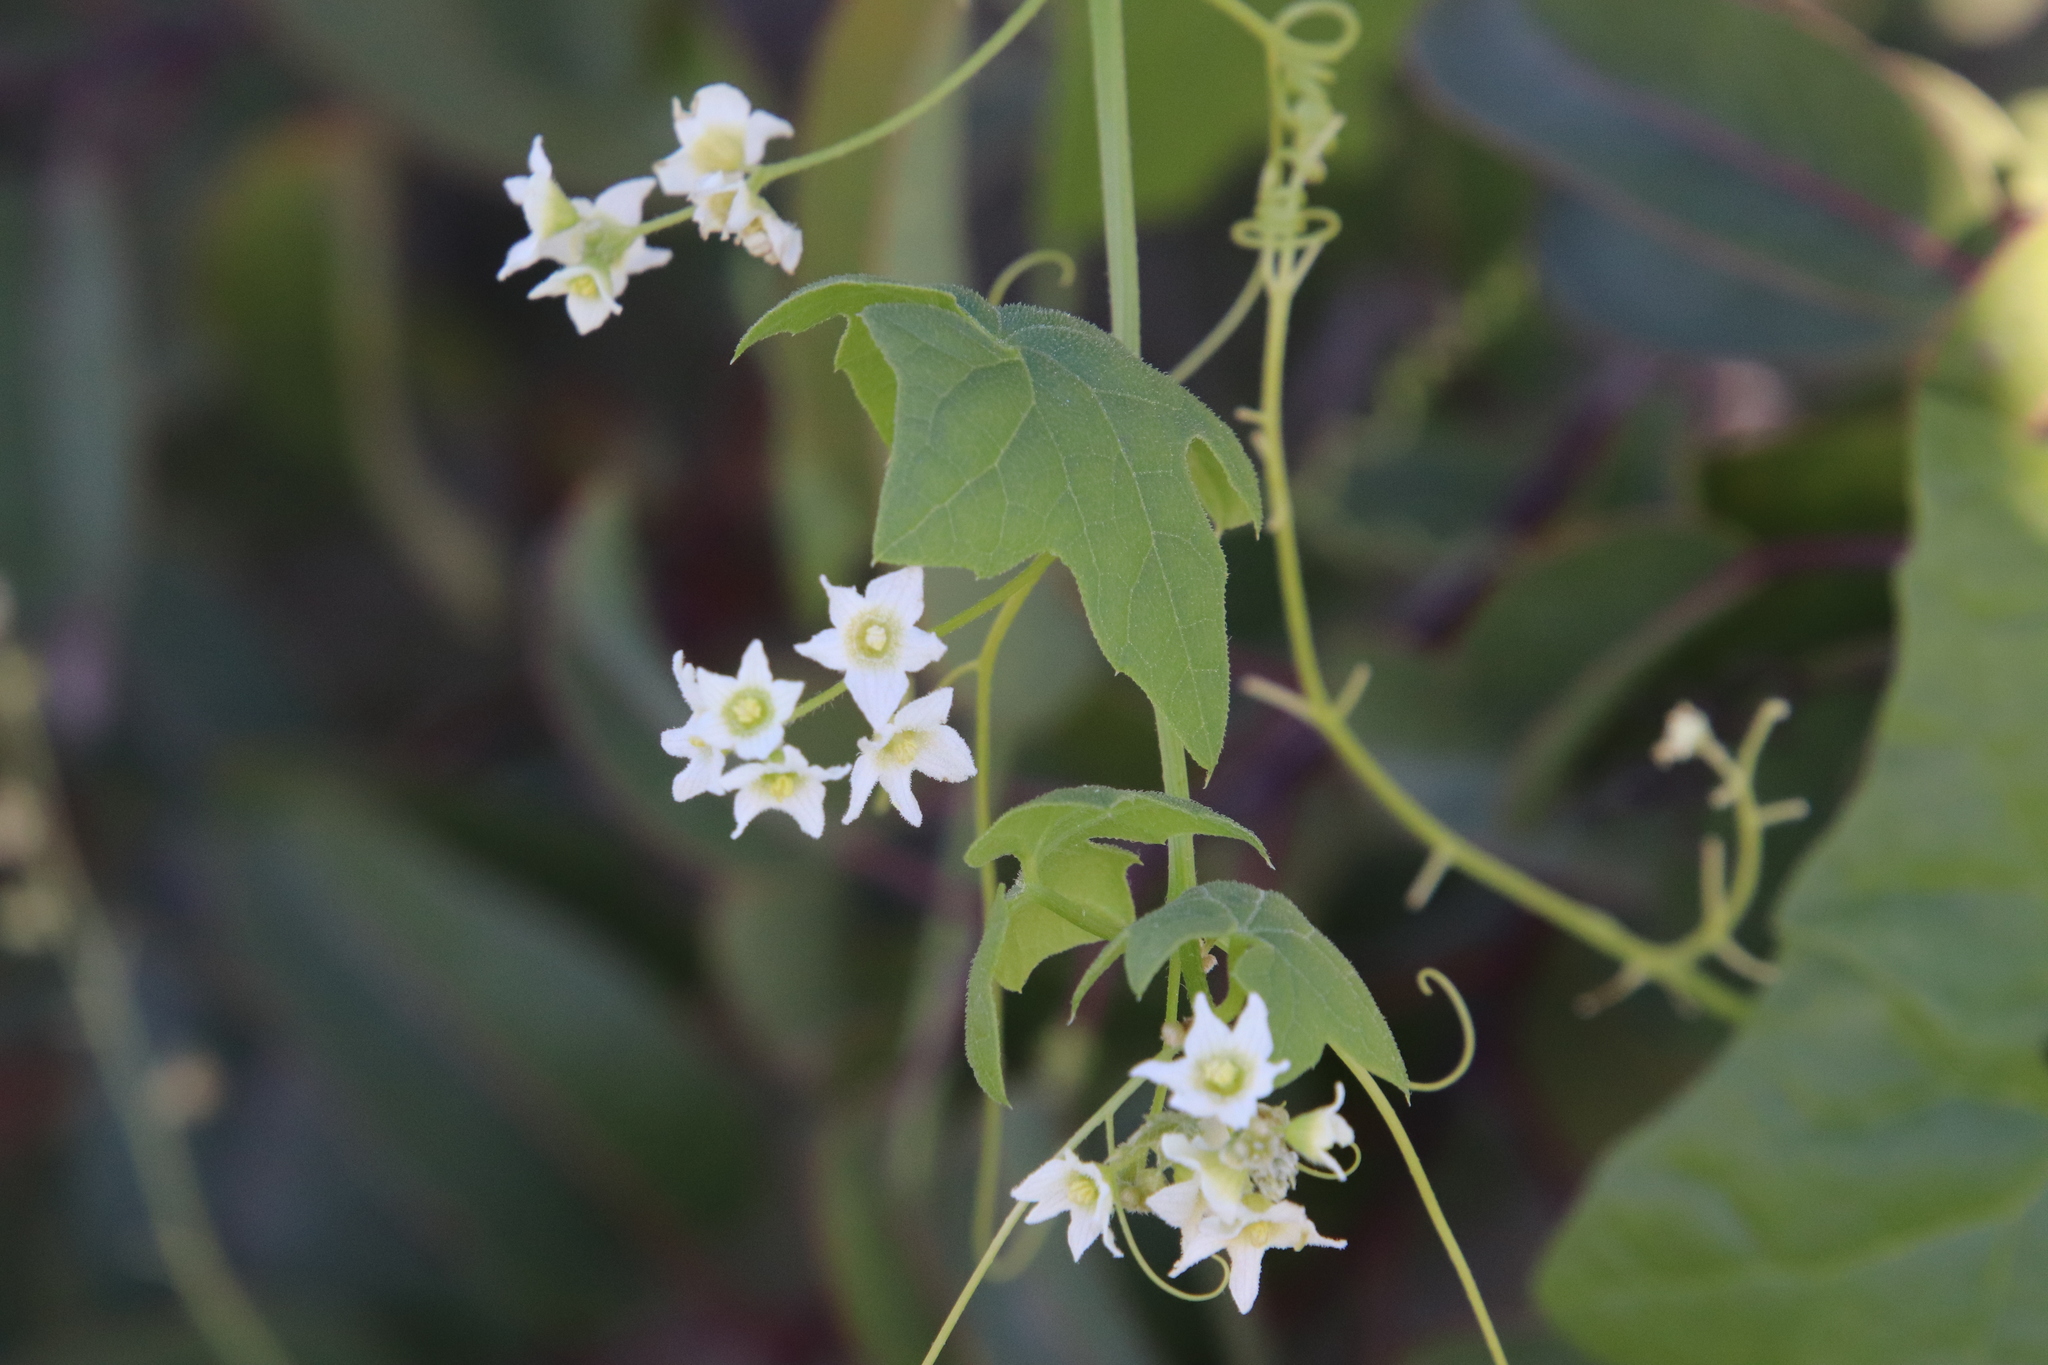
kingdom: Plantae
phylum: Tracheophyta
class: Magnoliopsida
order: Cucurbitales
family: Cucurbitaceae
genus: Marah
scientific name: Marah macrocarpa
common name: Cucamonga manroot
